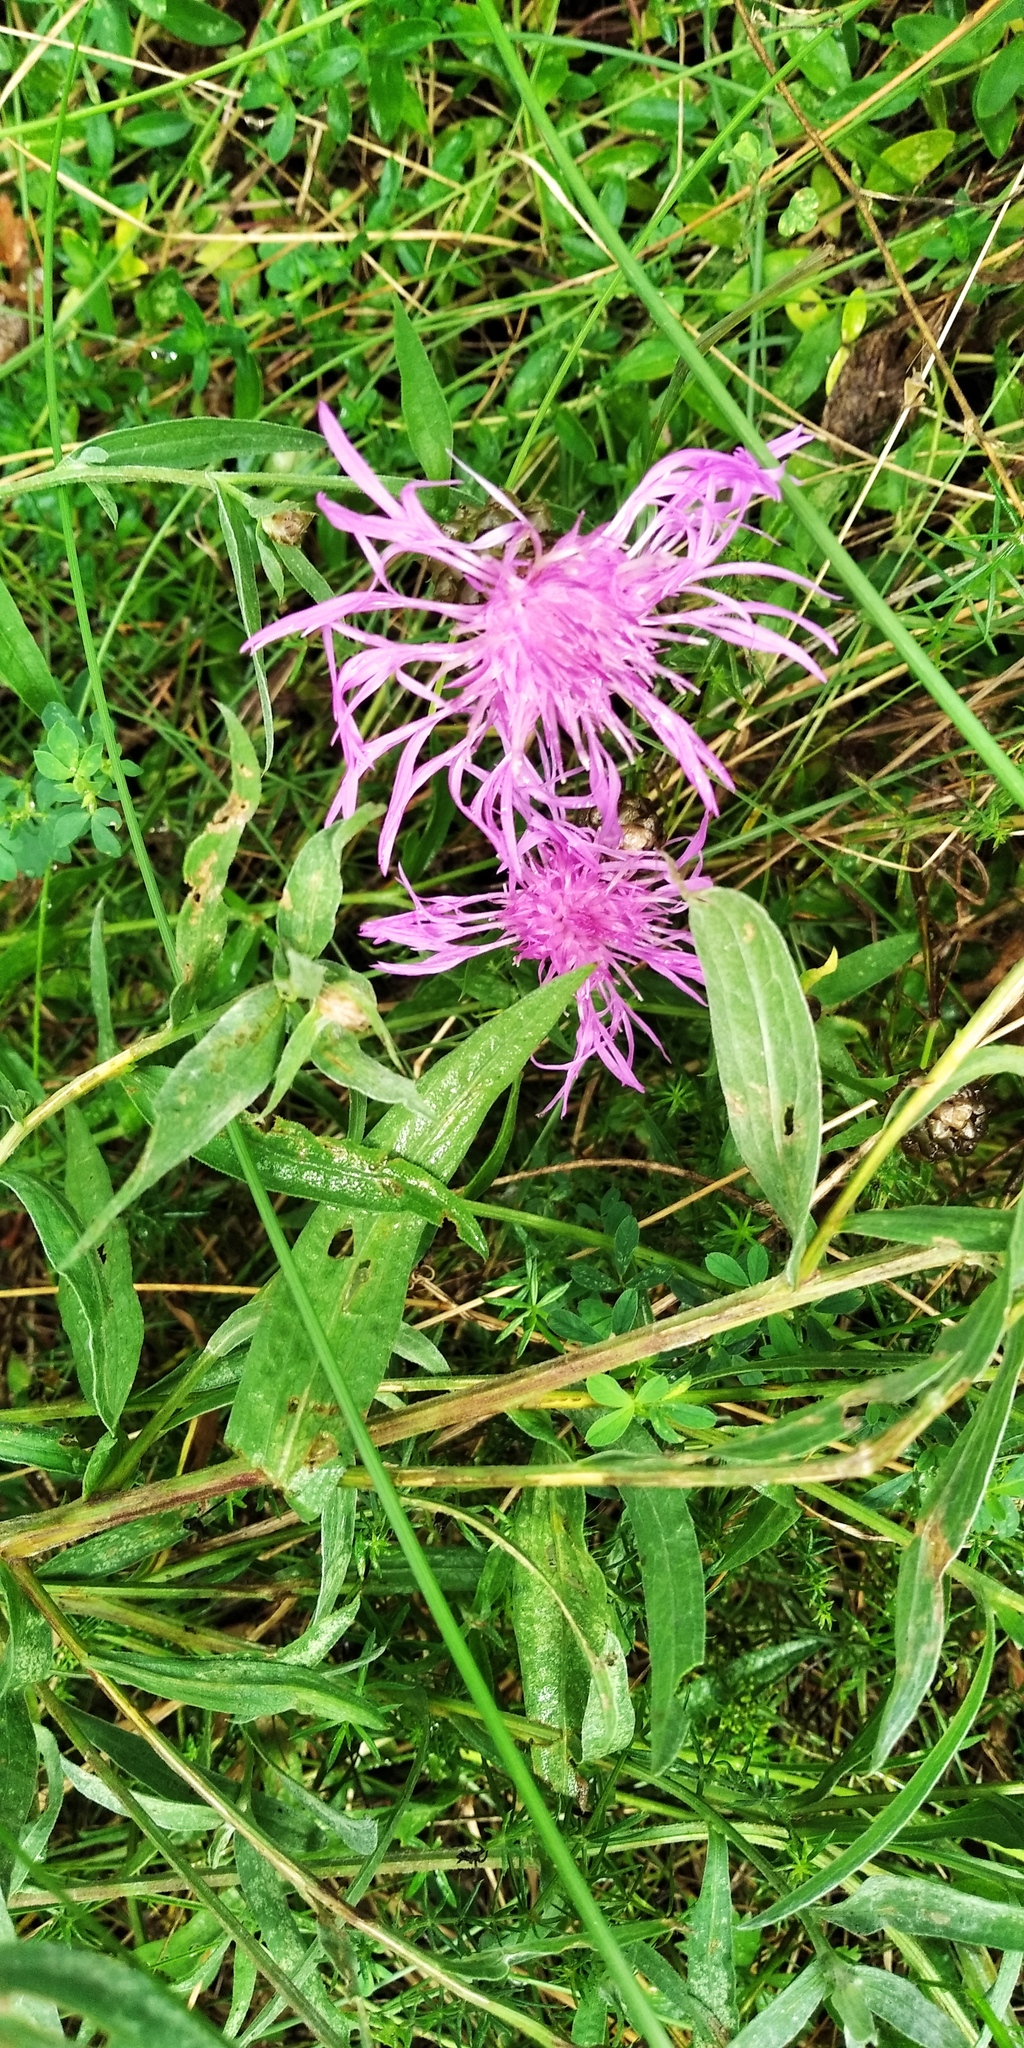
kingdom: Plantae
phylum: Tracheophyta
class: Magnoliopsida
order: Asterales
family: Asteraceae
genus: Centaurea
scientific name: Centaurea jacea
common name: Brown knapweed
